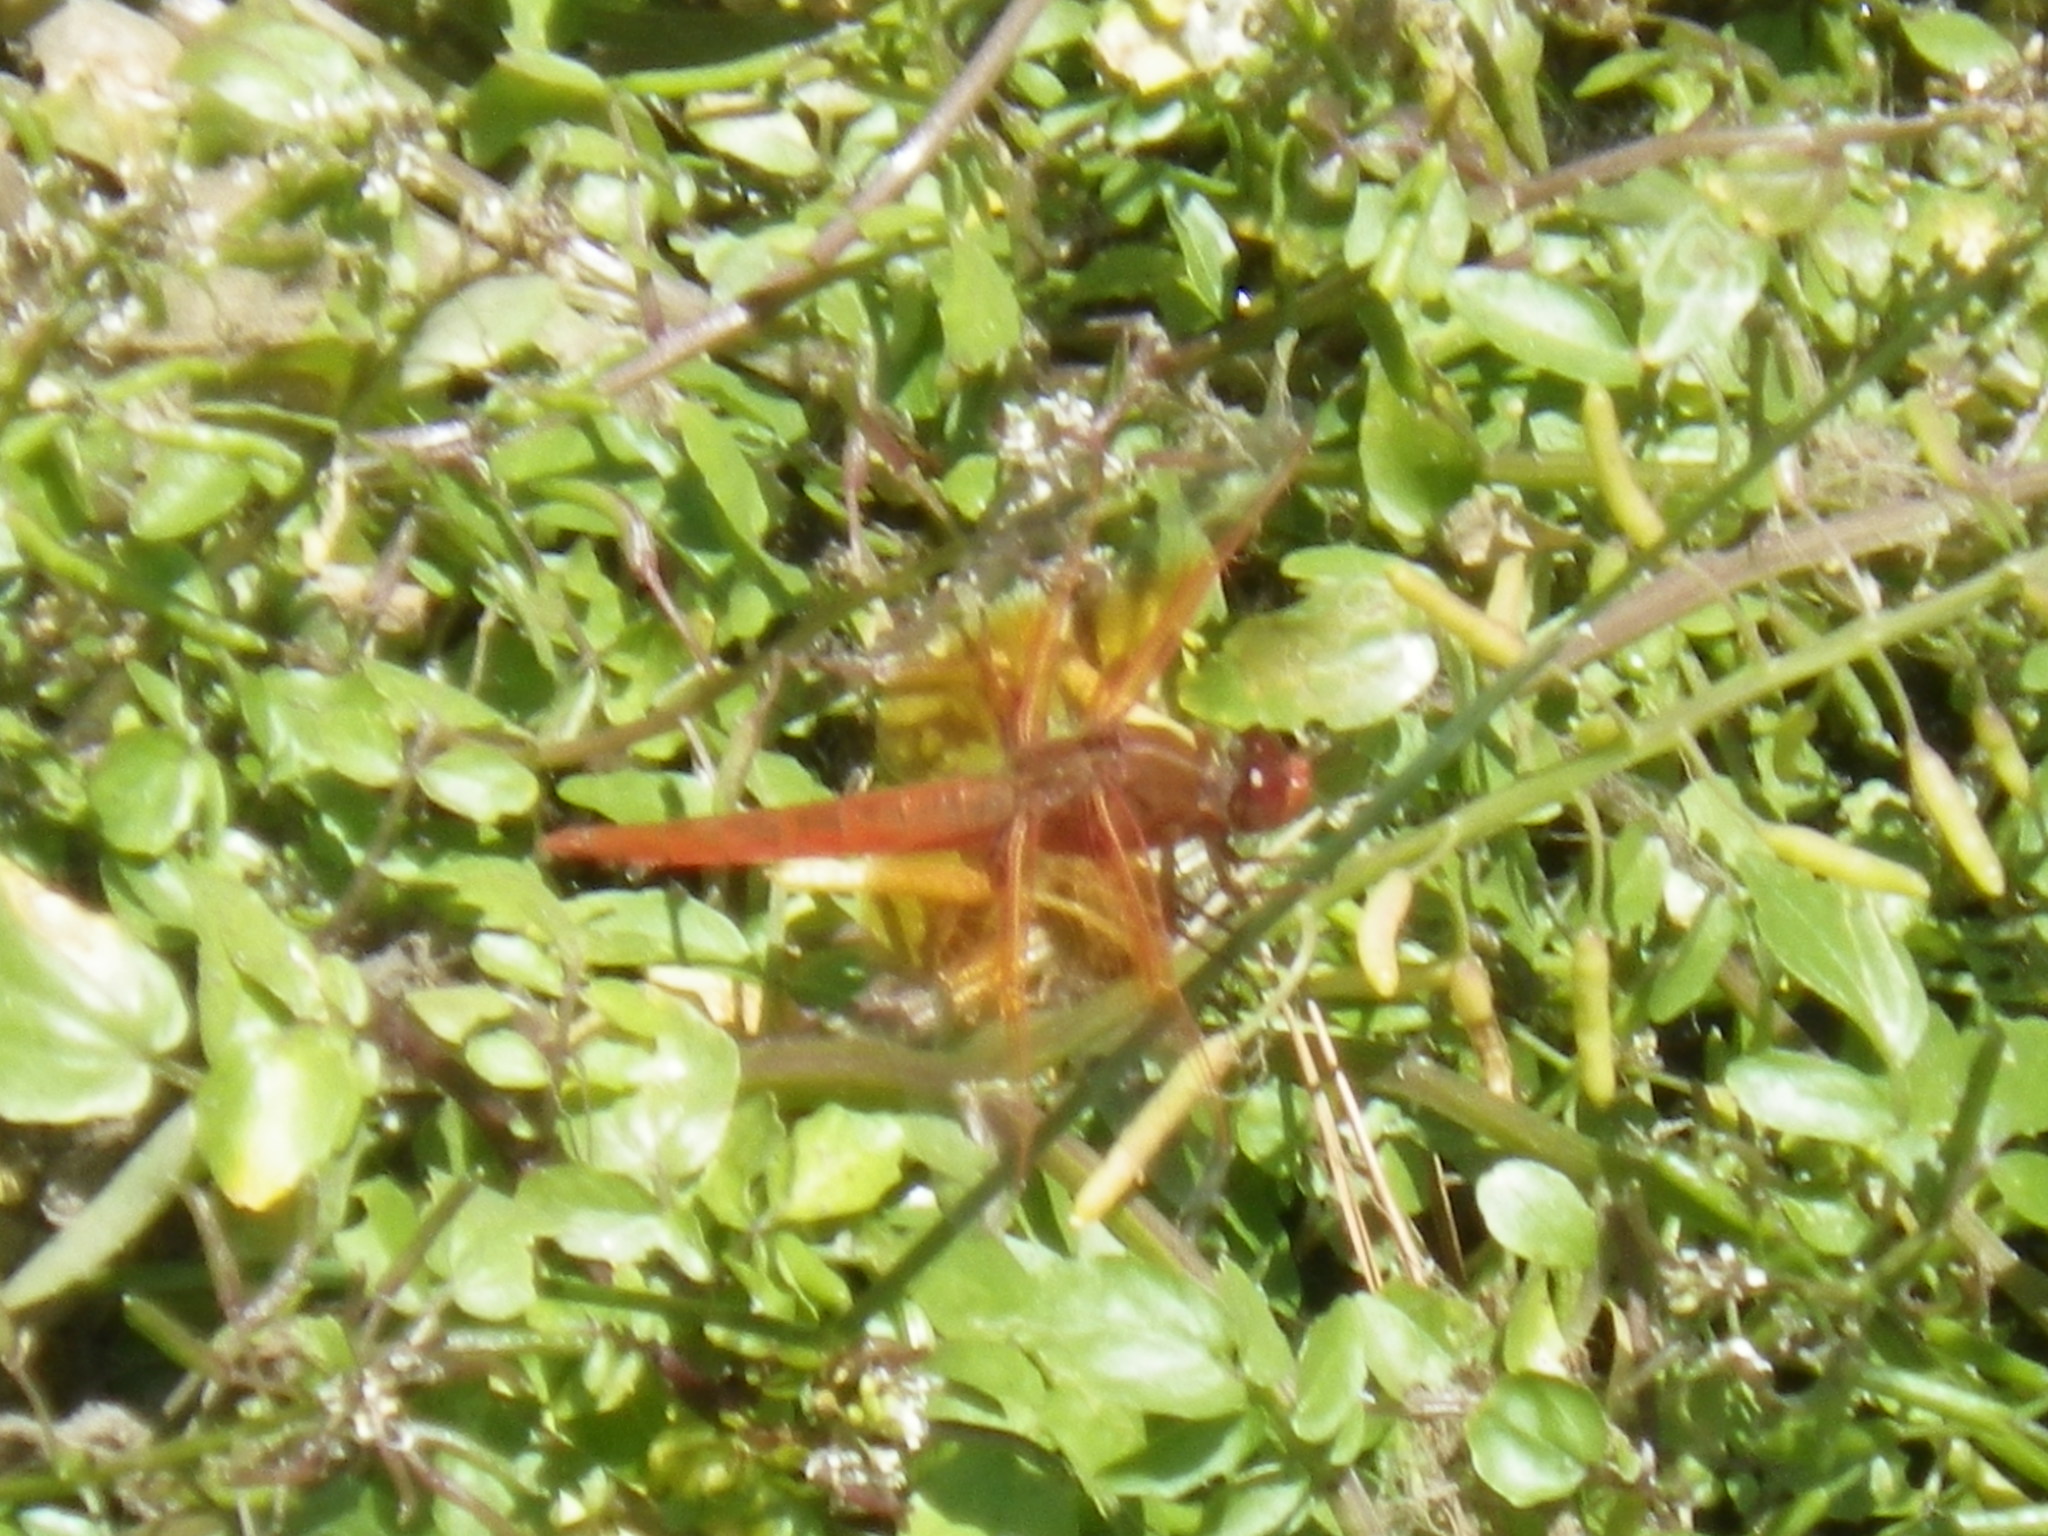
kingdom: Animalia
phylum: Arthropoda
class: Insecta
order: Odonata
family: Libellulidae
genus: Libellula
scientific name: Libellula saturata
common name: Flame skimmer
